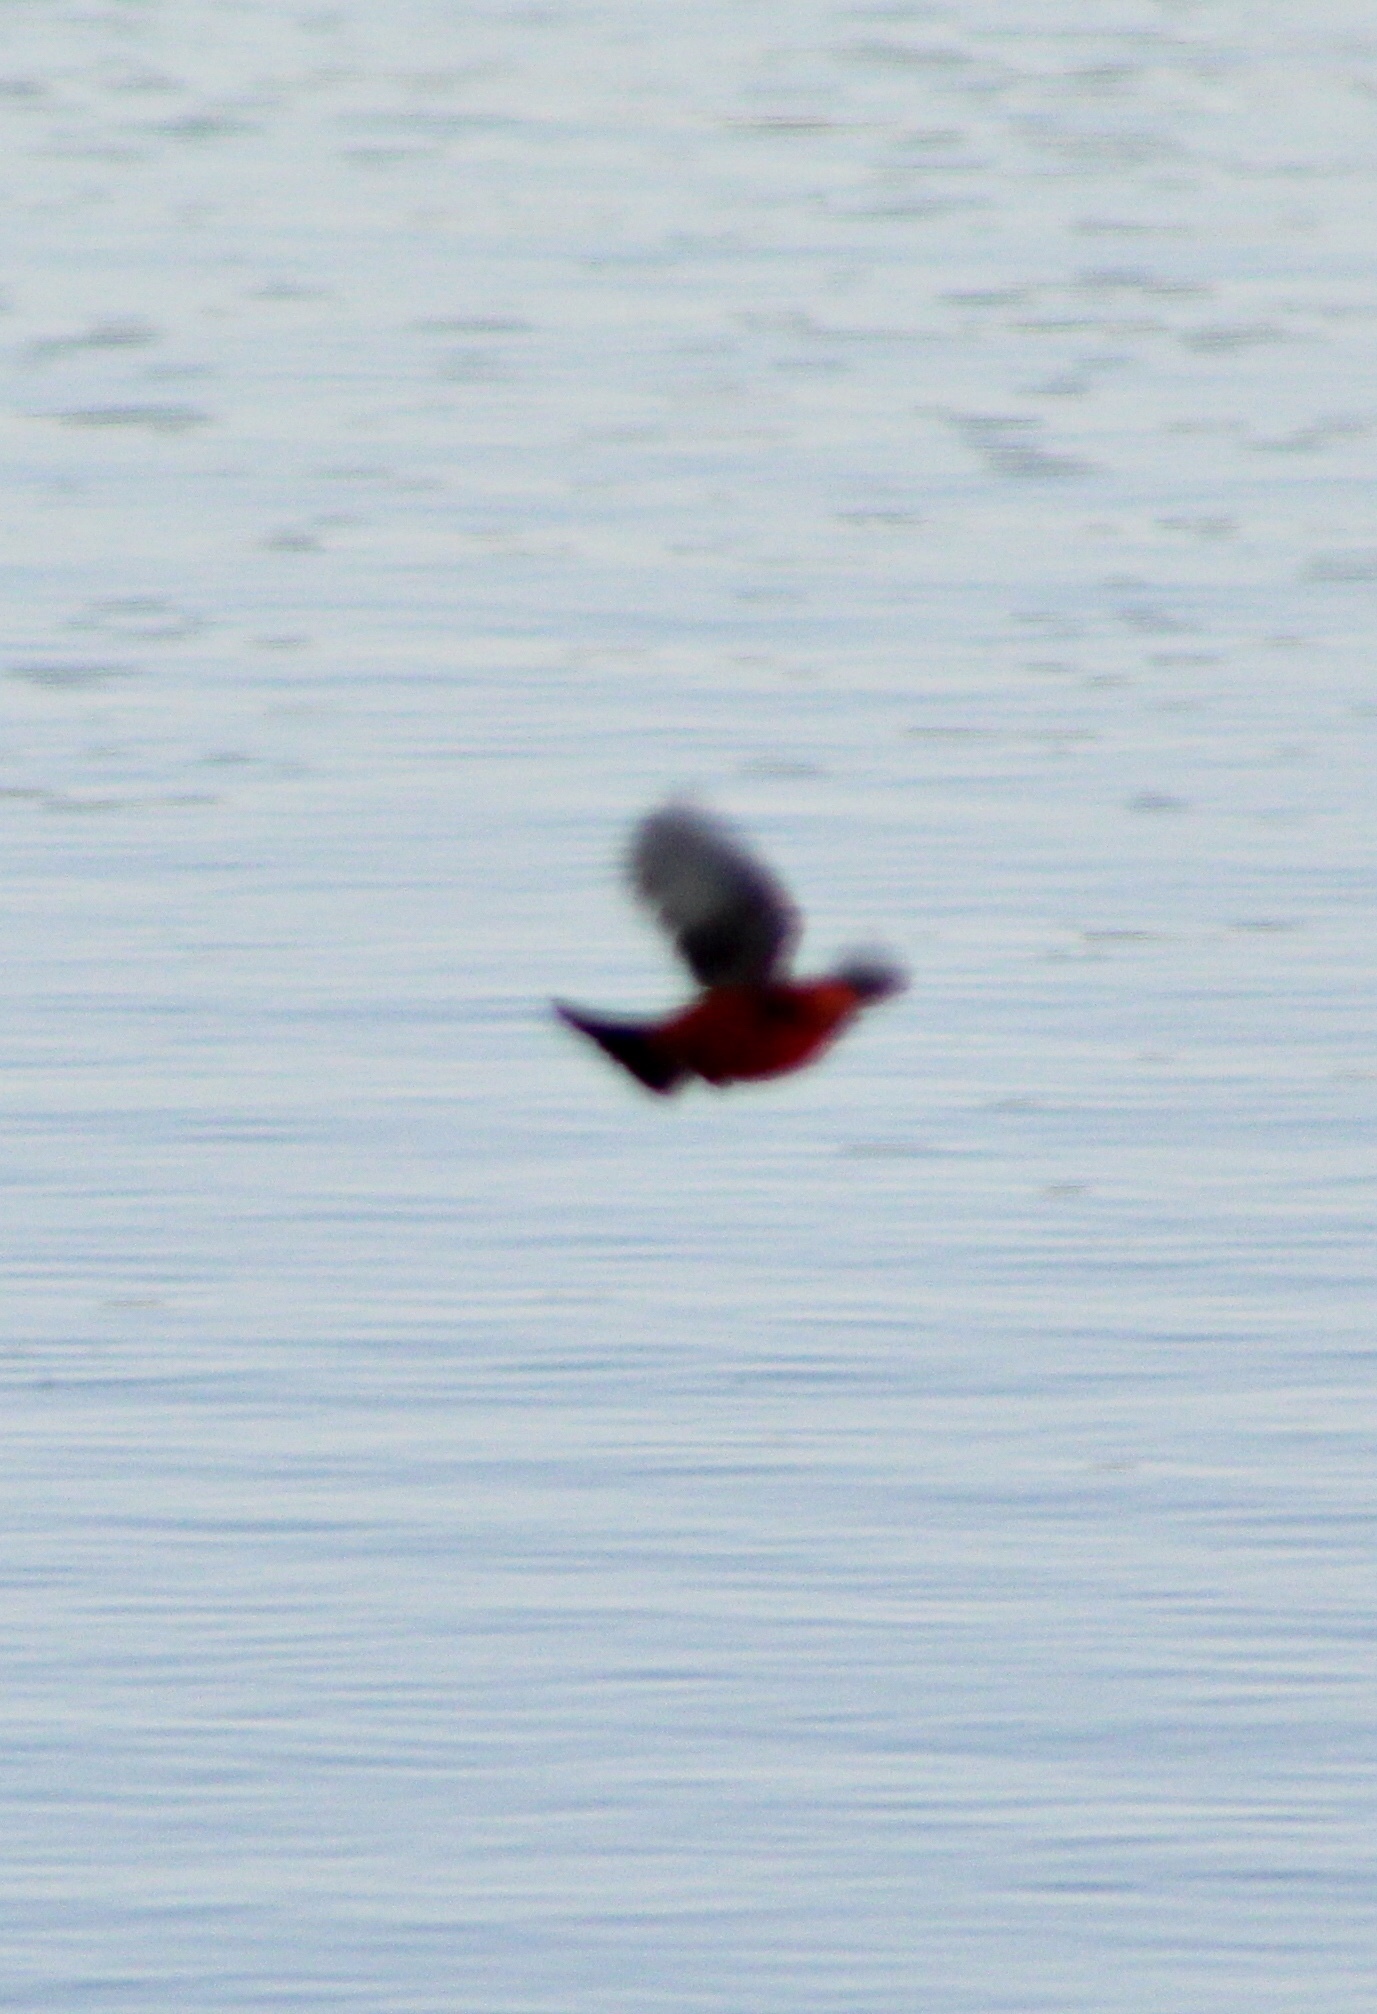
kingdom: Animalia
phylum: Chordata
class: Aves
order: Passeriformes
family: Tyrannidae
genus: Pyrocephalus
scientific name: Pyrocephalus rubinus
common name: Vermilion flycatcher
